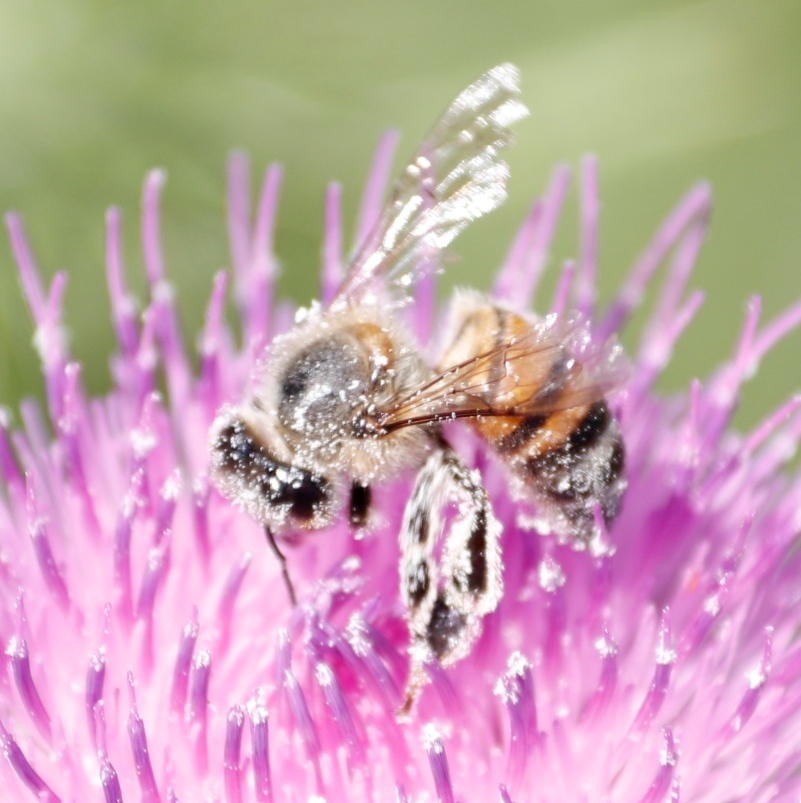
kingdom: Animalia
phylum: Arthropoda
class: Insecta
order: Hymenoptera
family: Apidae
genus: Apis
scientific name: Apis mellifera
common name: Honey bee
